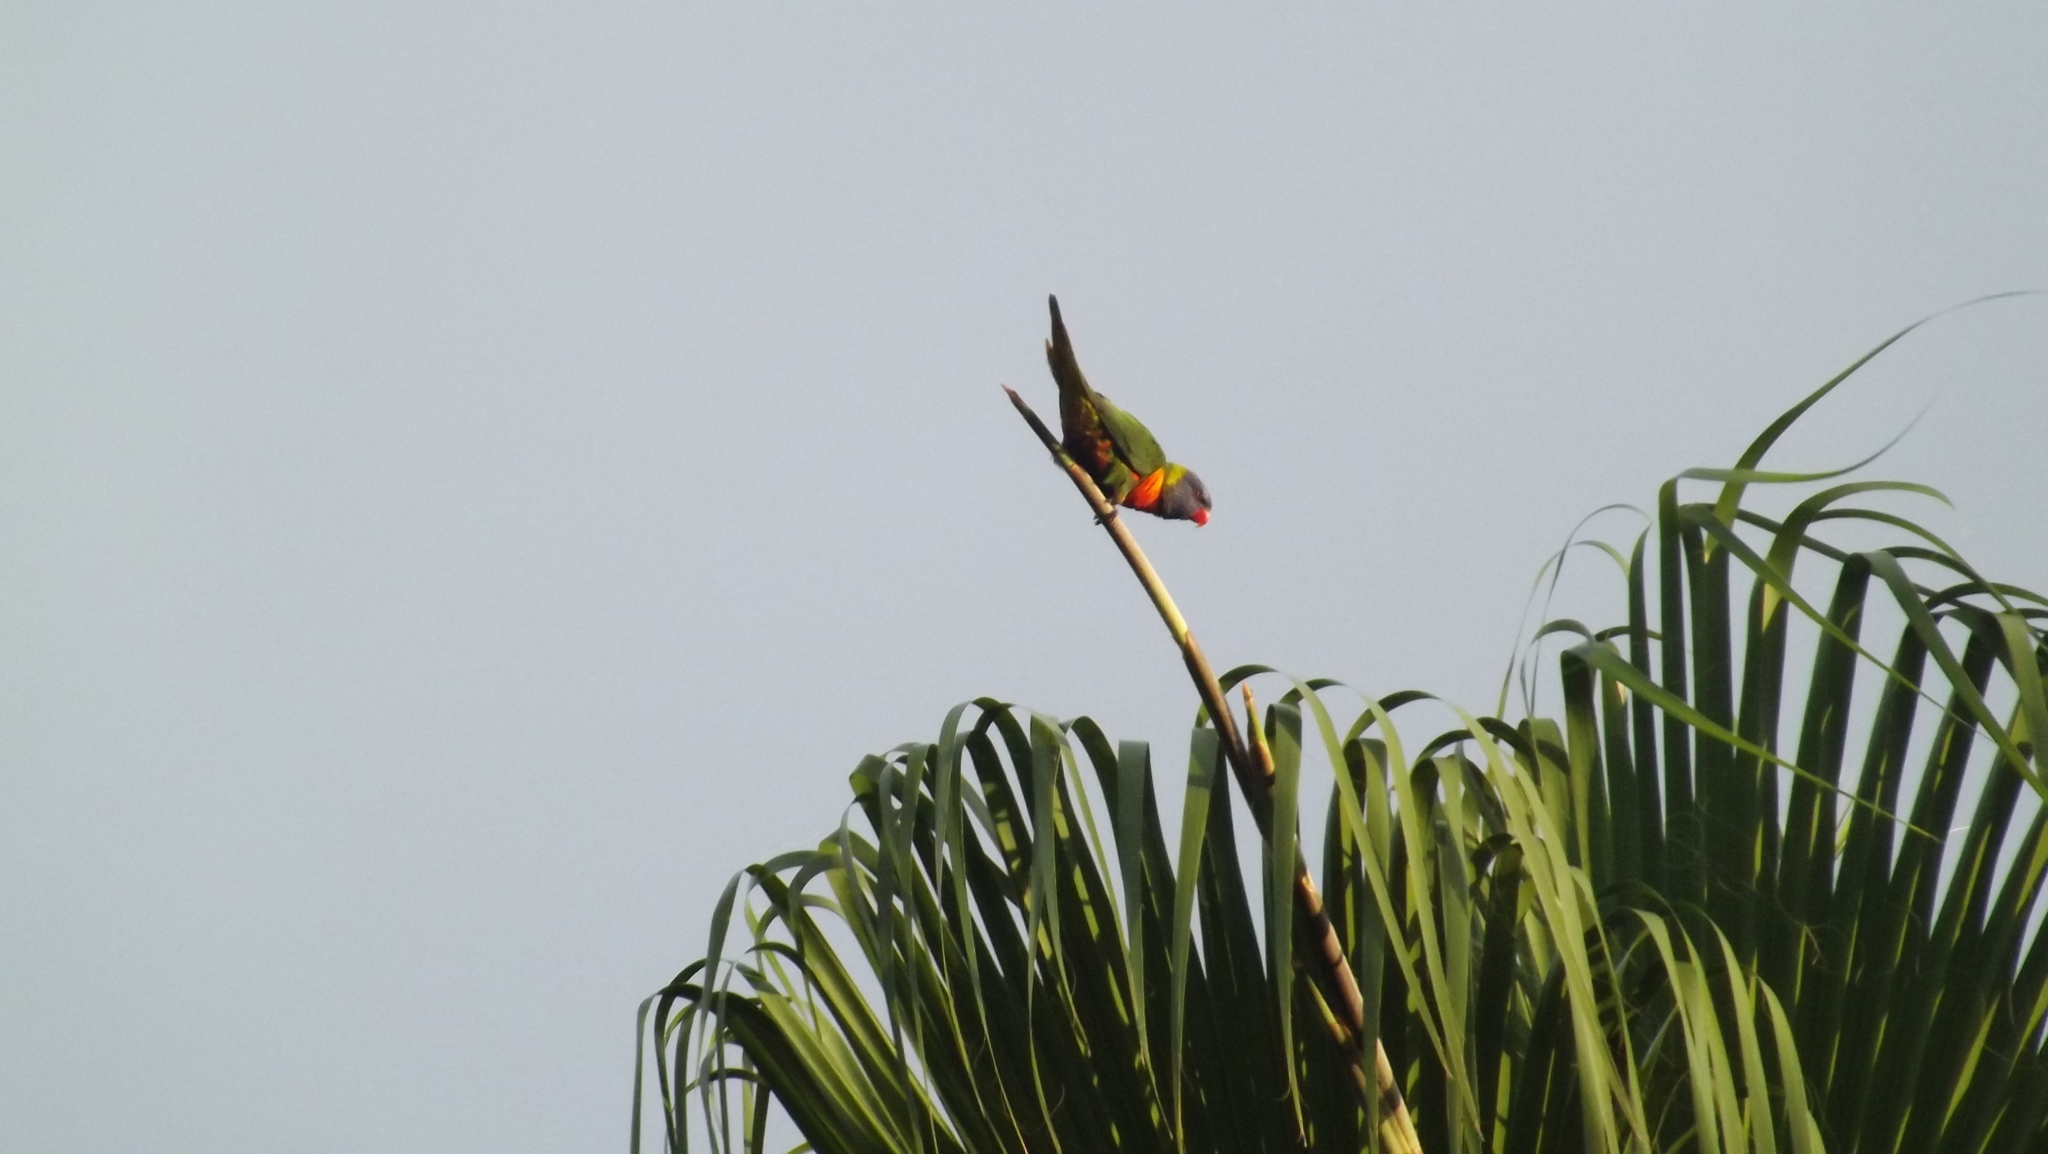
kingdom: Animalia
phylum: Chordata
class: Aves
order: Psittaciformes
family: Psittacidae
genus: Trichoglossus
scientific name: Trichoglossus haematodus
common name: Coconut lorikeet
